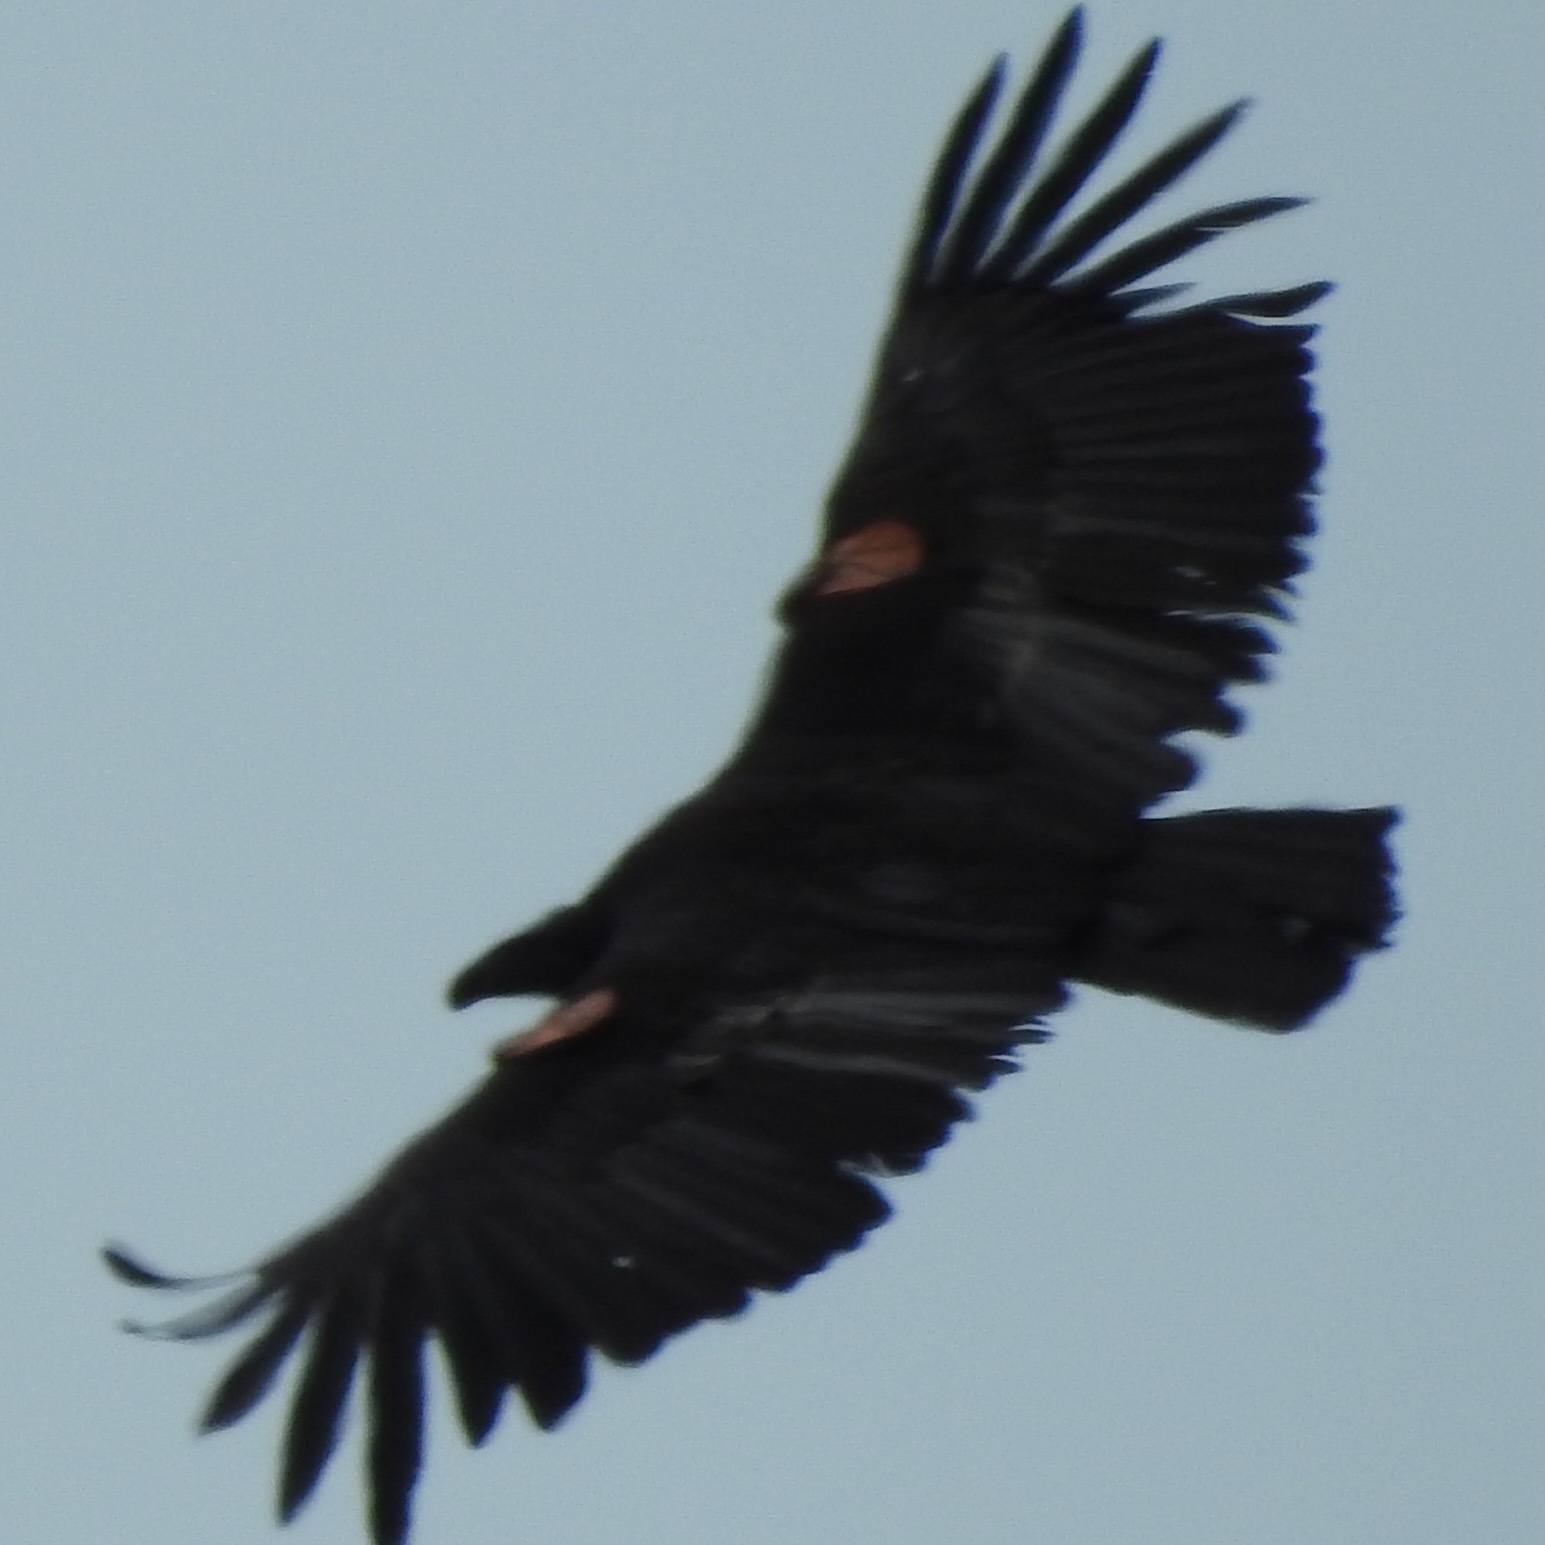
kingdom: Animalia
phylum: Chordata
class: Aves
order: Accipitriformes
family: Cathartidae
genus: Gymnogyps
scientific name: Gymnogyps californianus
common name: California condor
